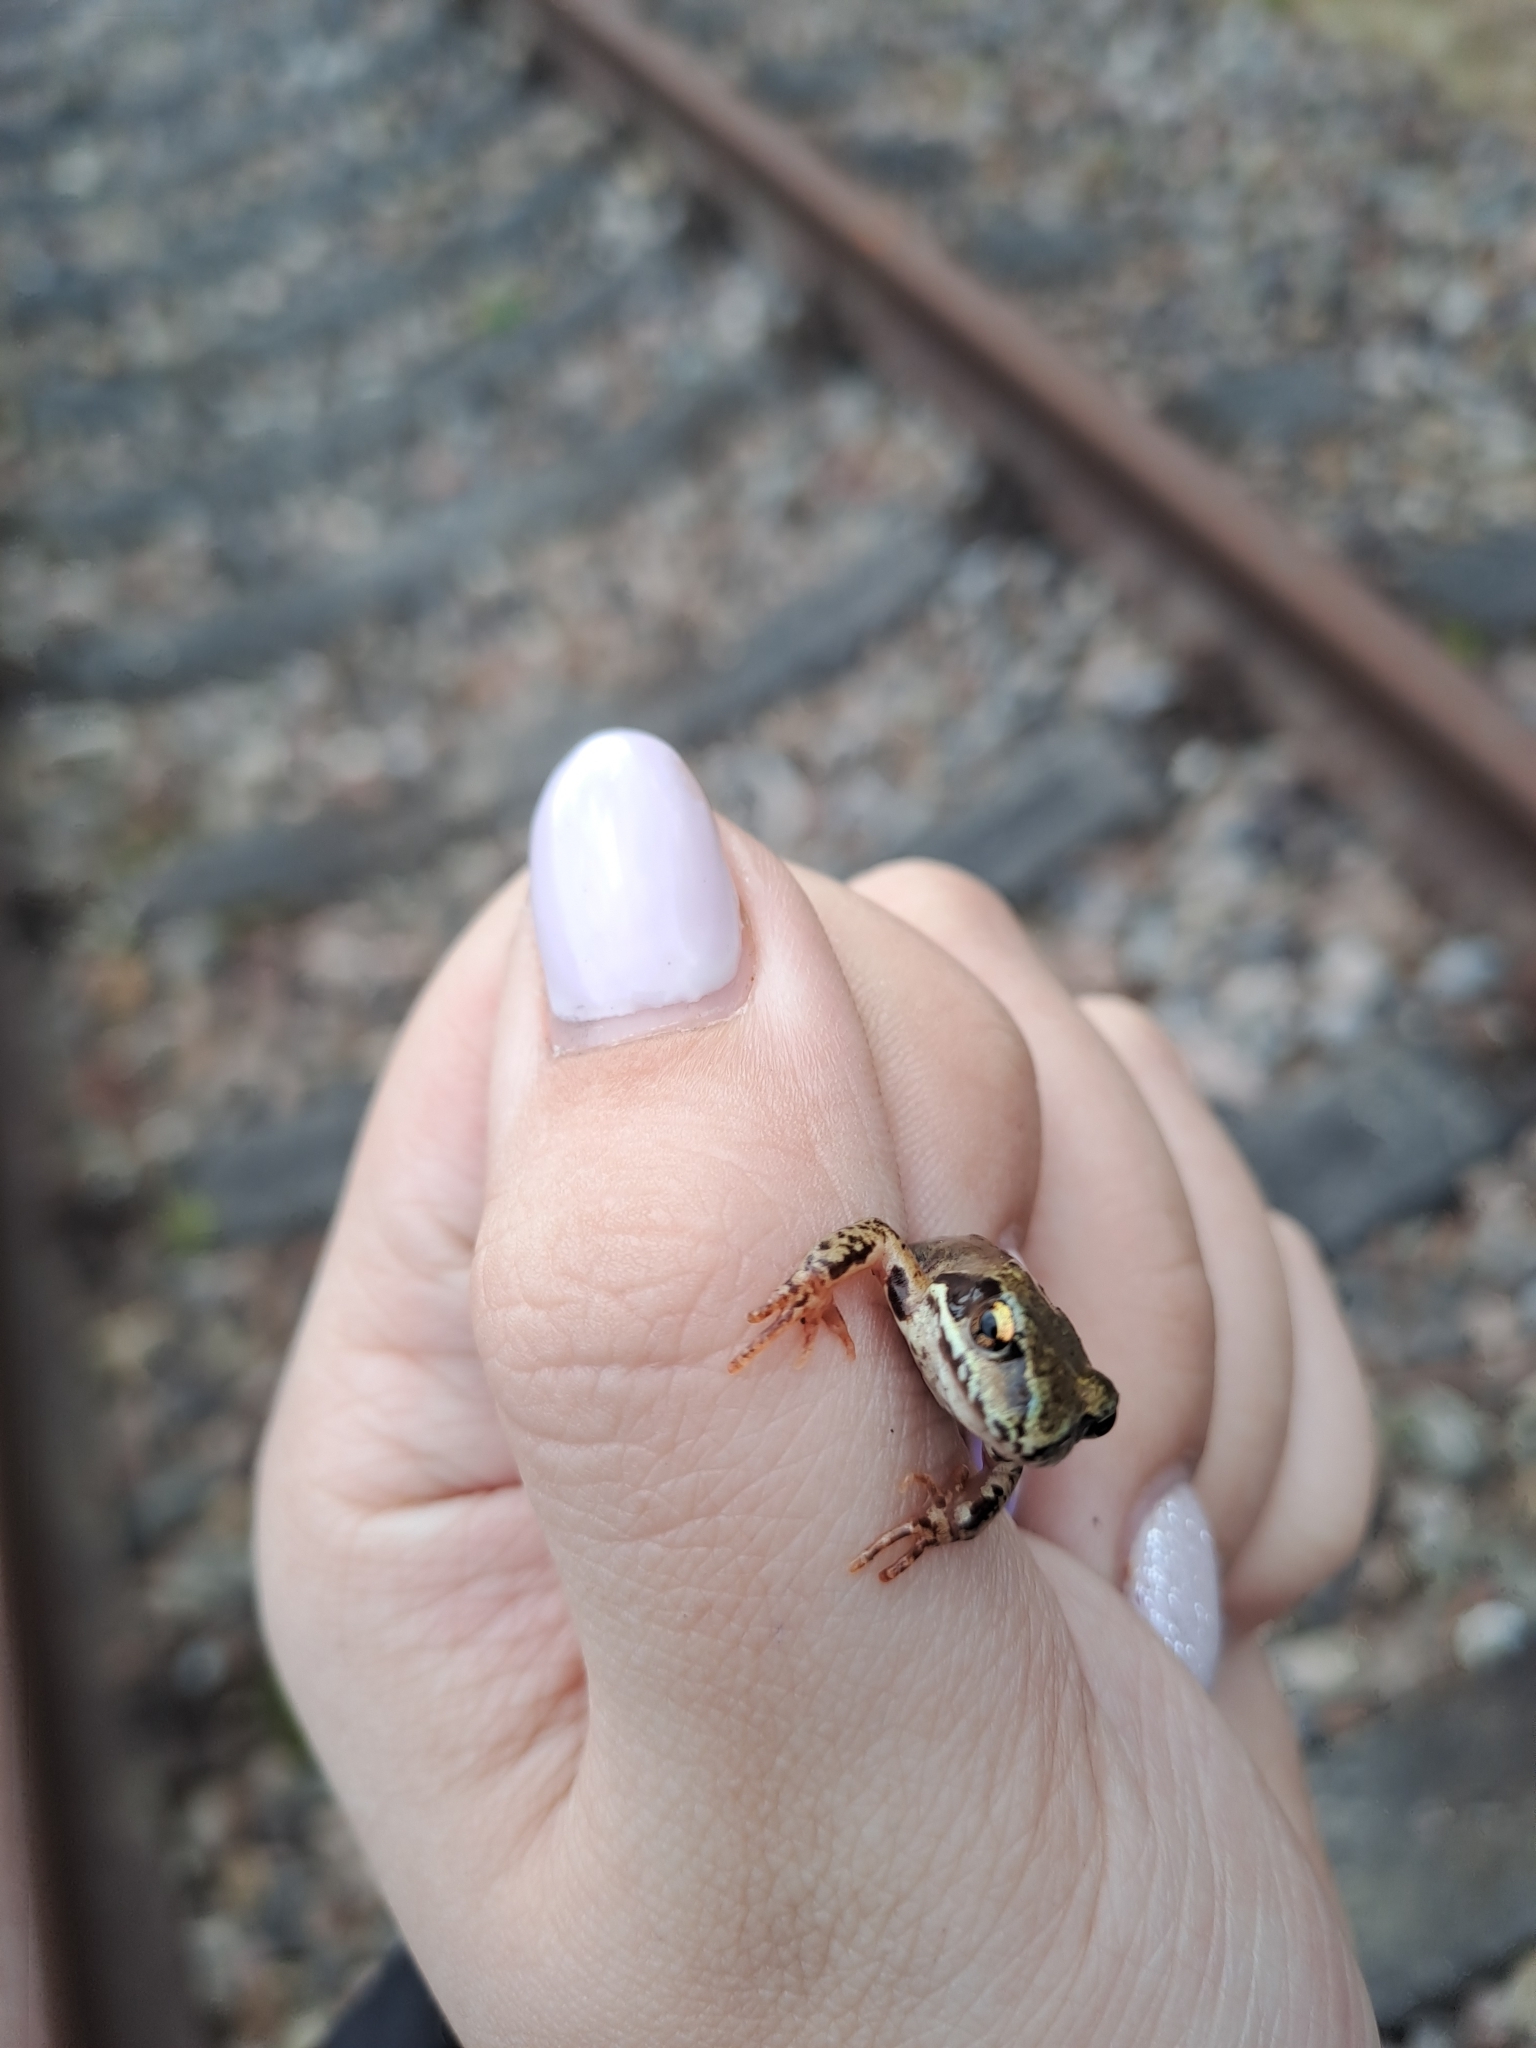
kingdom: Animalia
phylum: Chordata
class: Amphibia
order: Anura
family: Ranidae
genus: Rana
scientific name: Rana temporaria
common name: Common frog
